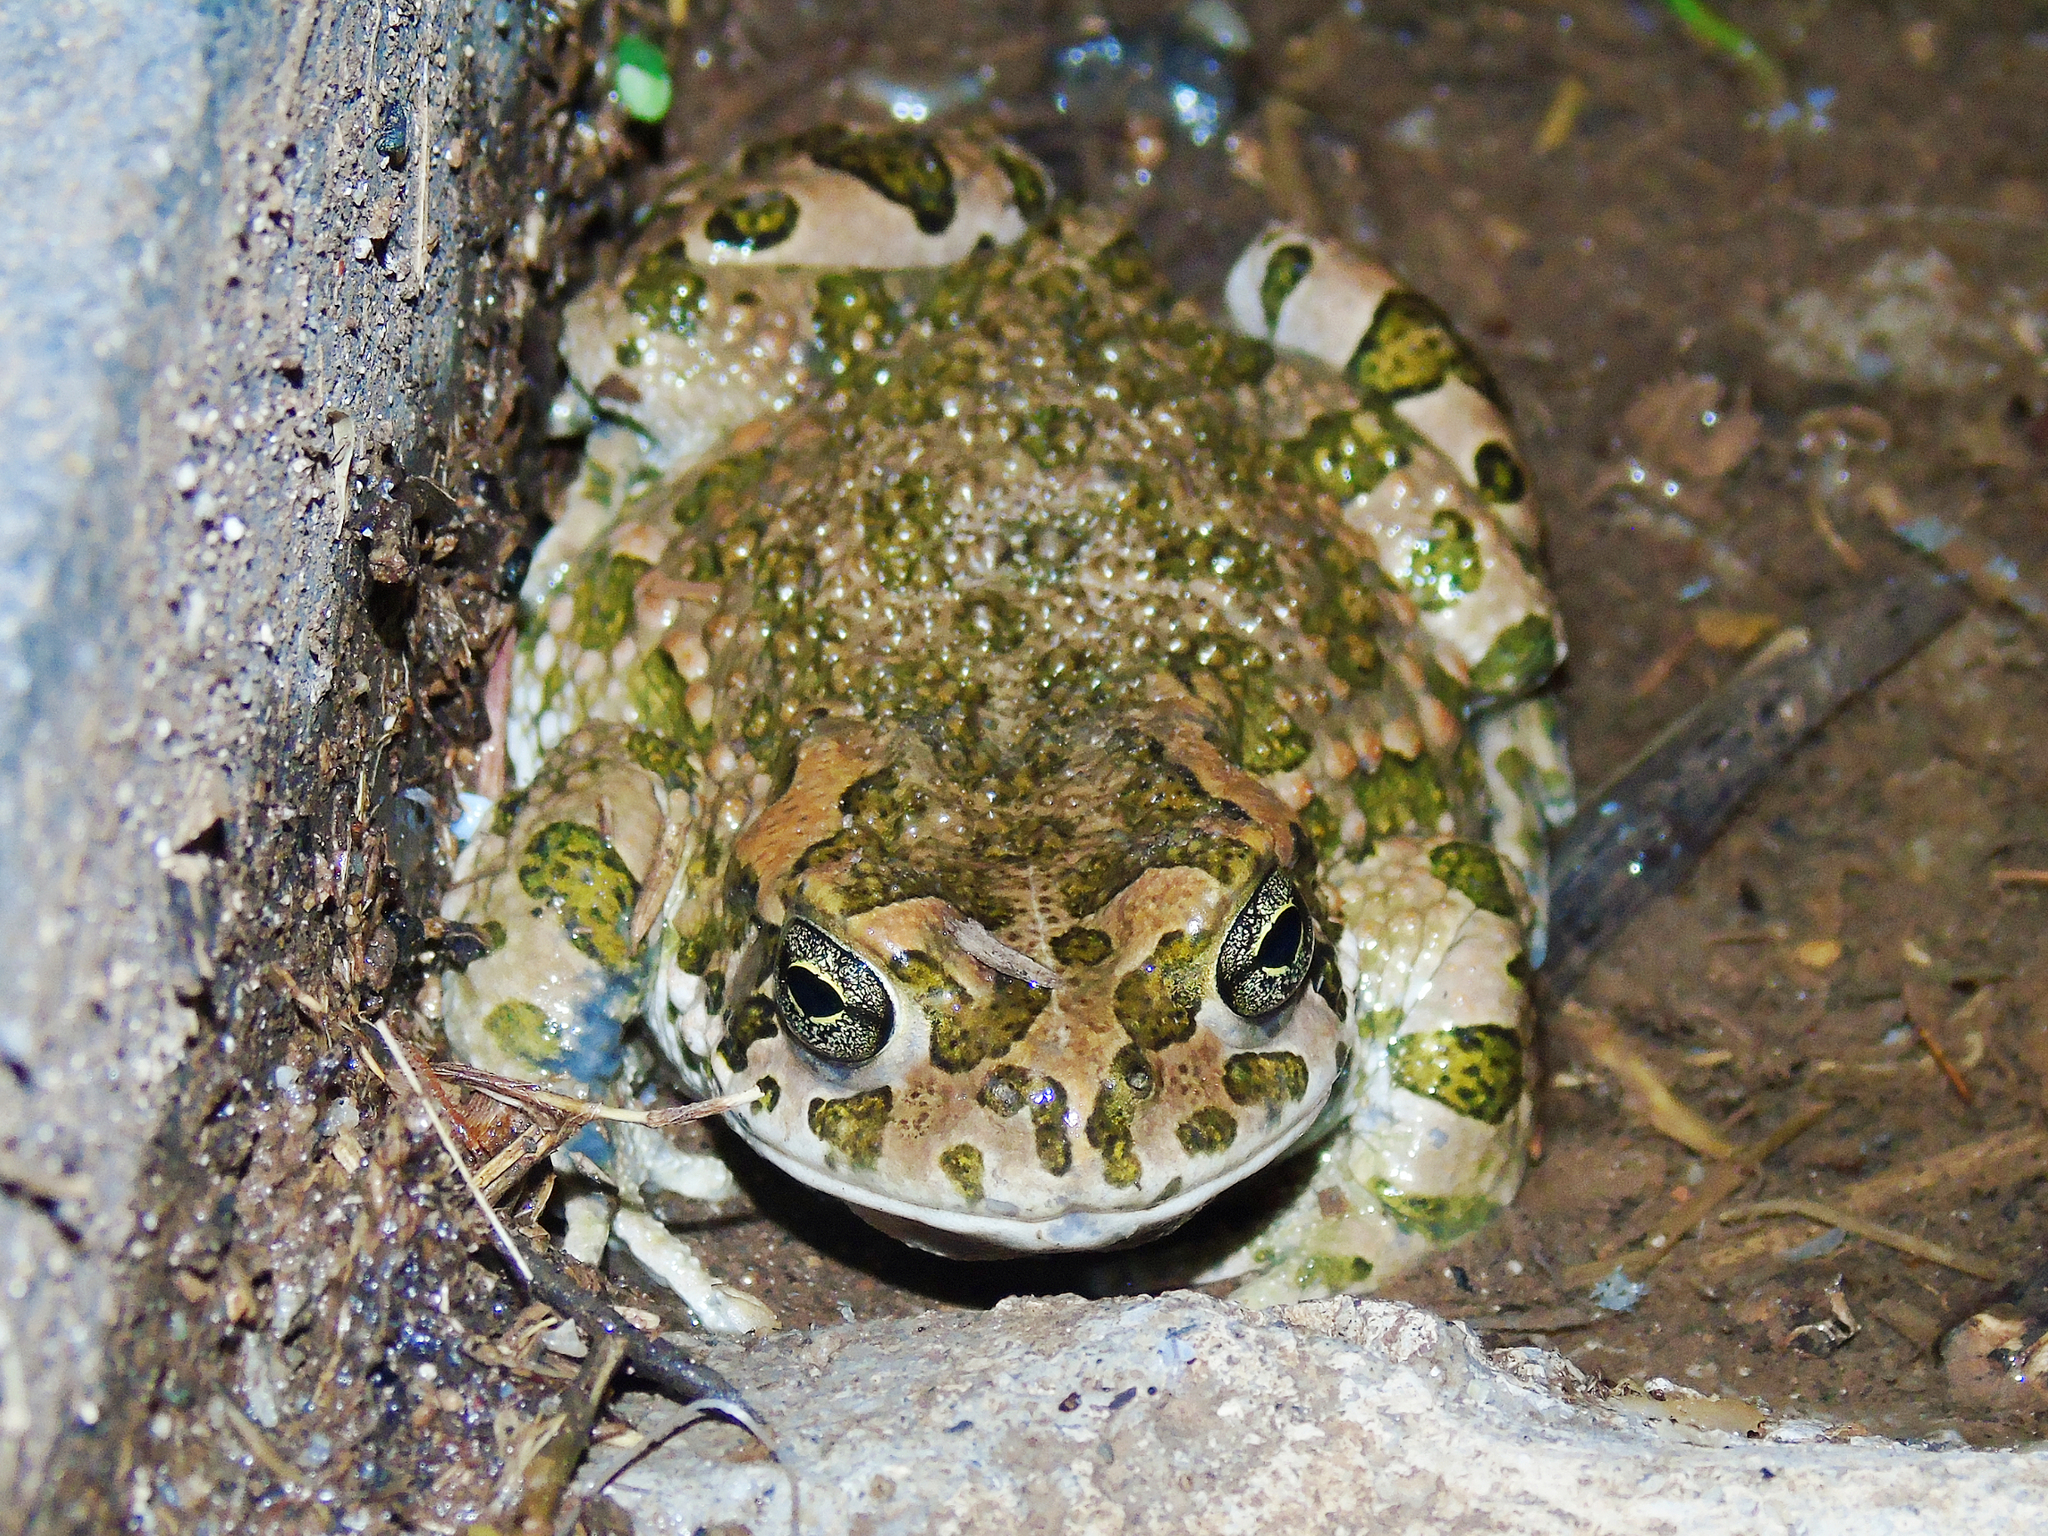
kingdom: Animalia
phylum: Chordata
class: Amphibia
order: Anura
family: Bufonidae
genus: Bufotes
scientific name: Bufotes viridis
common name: European green toad
